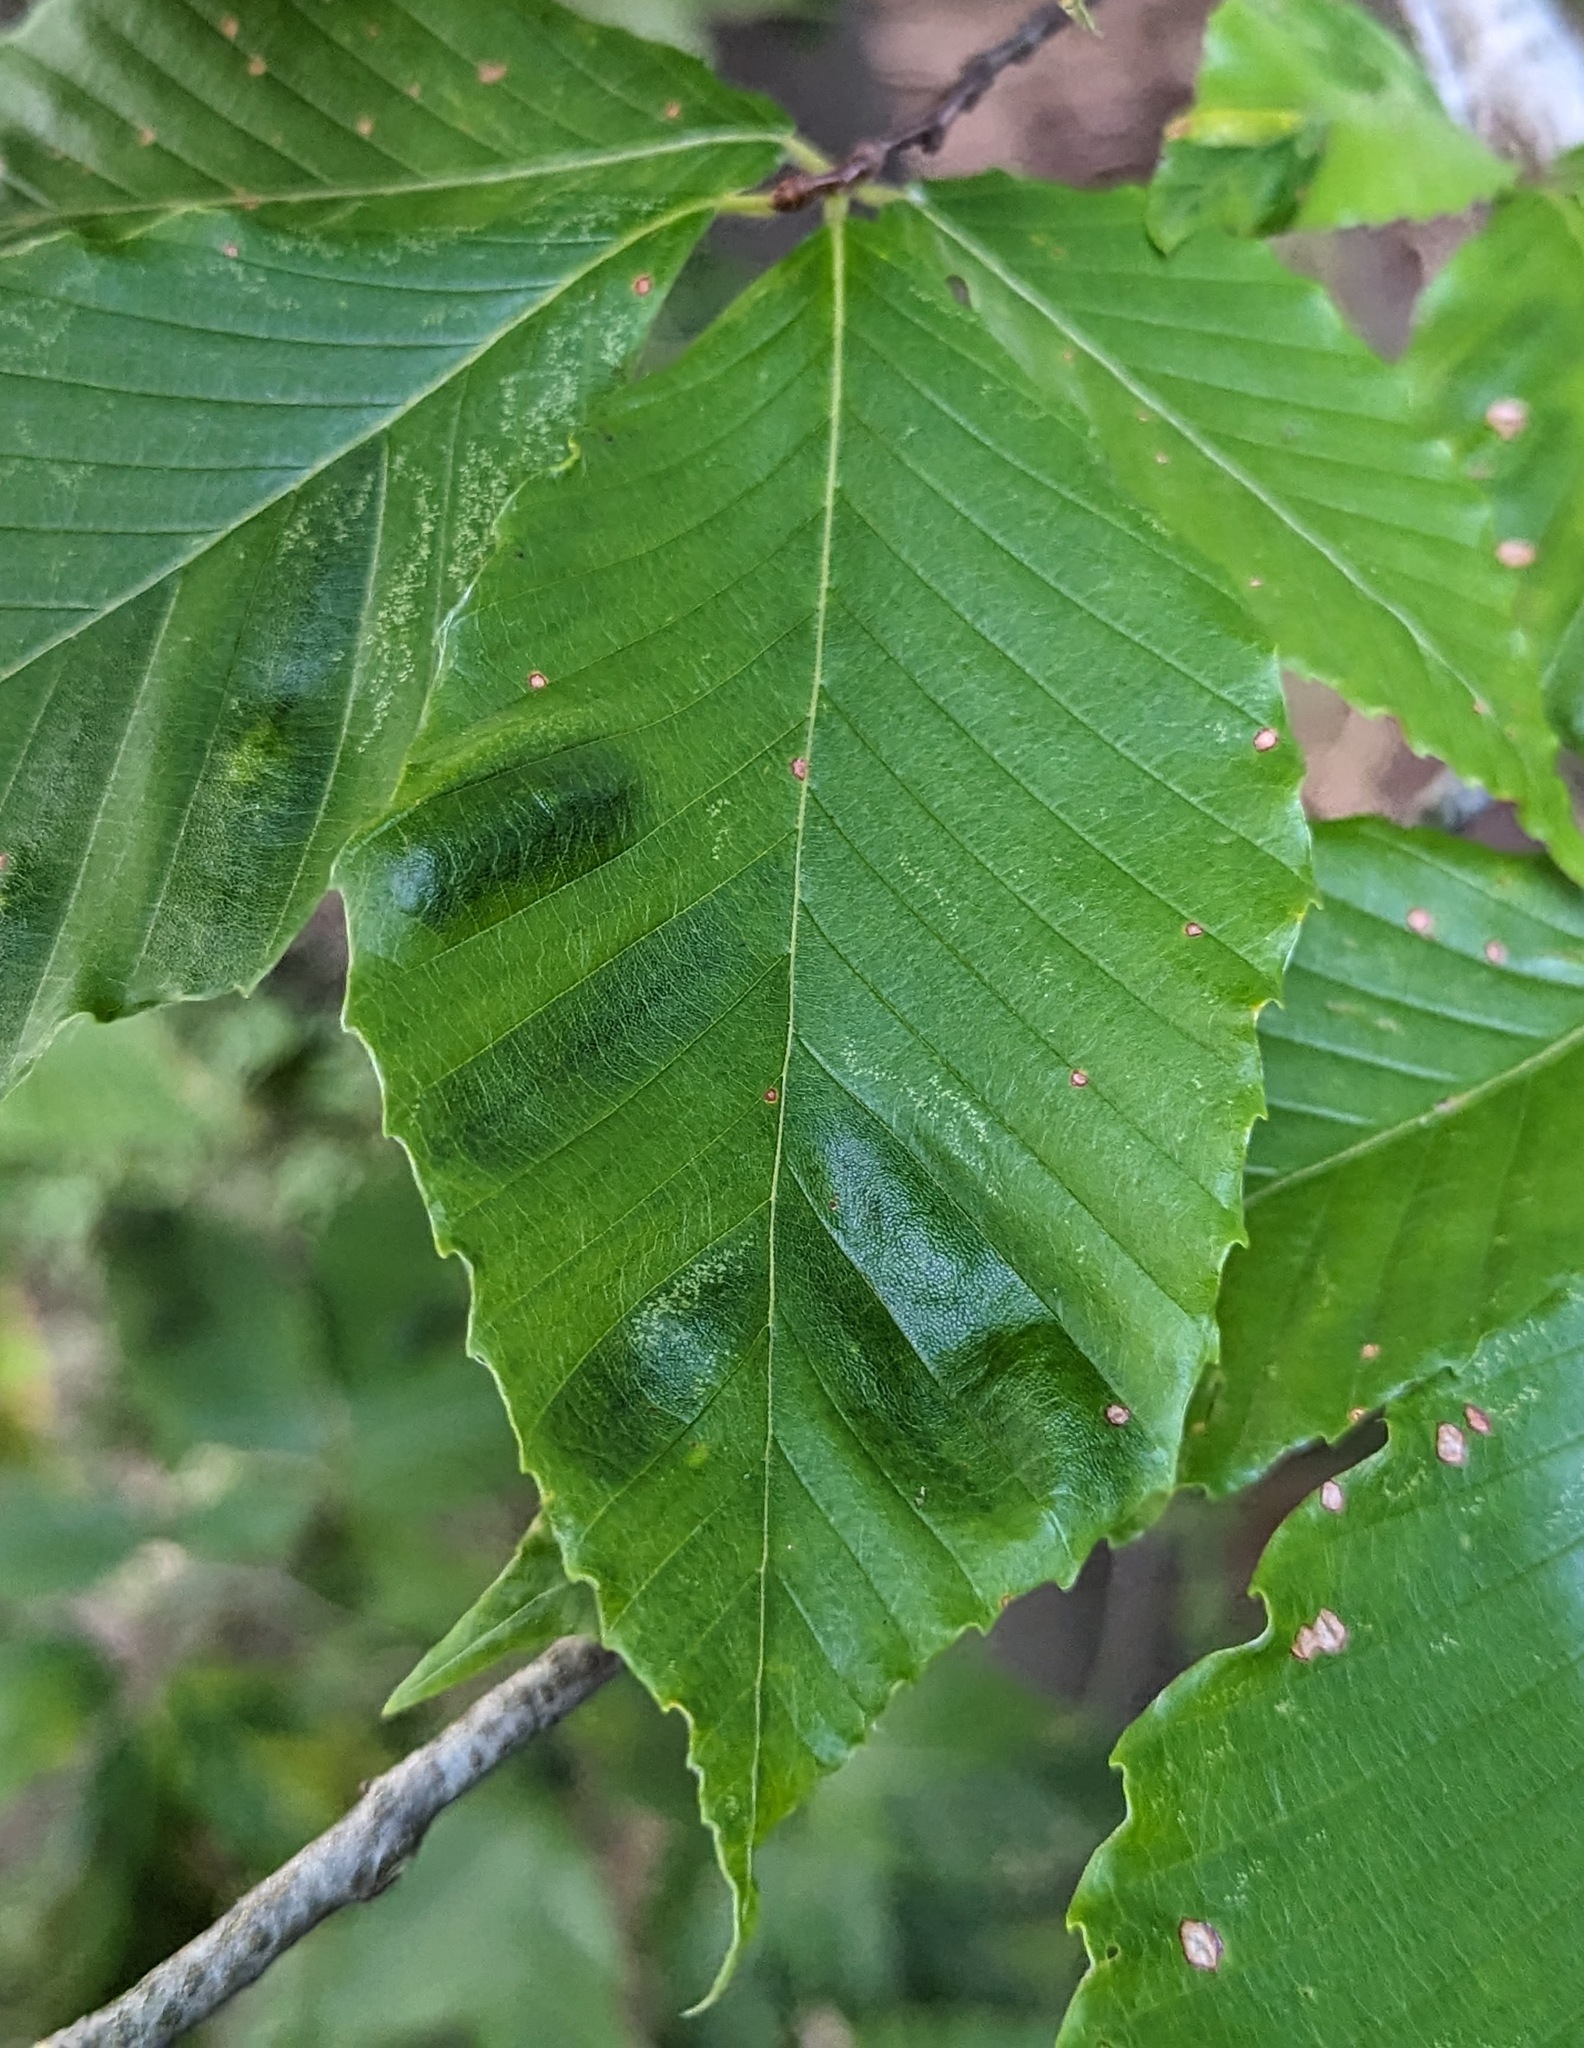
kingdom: Animalia
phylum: Nematoda
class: Chromadorea
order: Rhabditida
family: Anguinidae
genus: Litylenchus
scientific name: Litylenchus crenatae
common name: Beech leaf disease
